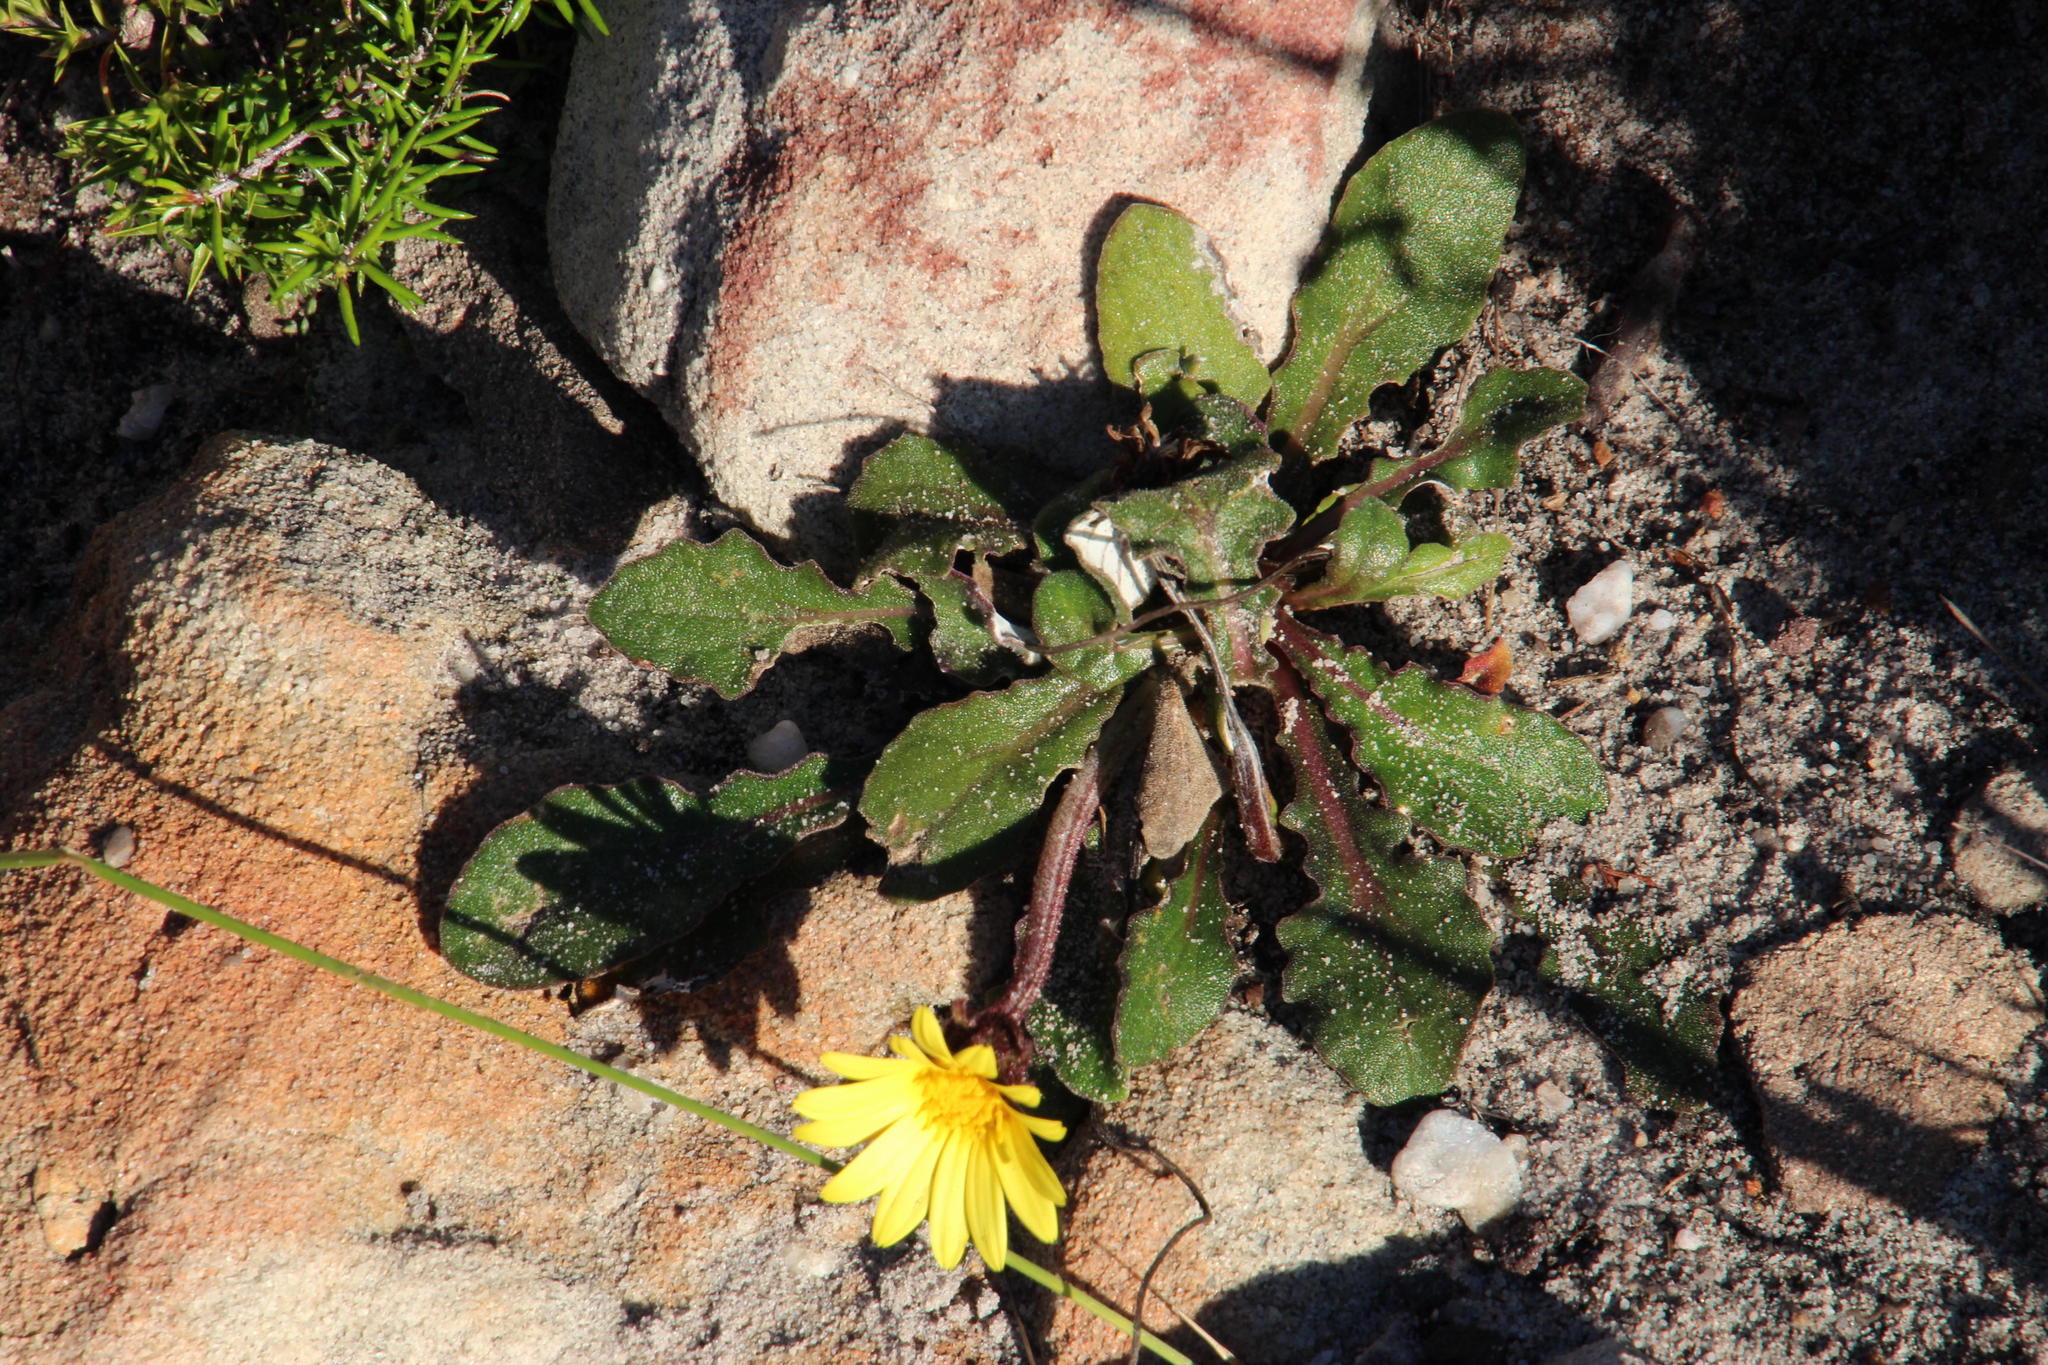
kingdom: Plantae
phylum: Tracheophyta
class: Magnoliopsida
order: Asterales
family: Asteraceae
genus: Haplocarpha
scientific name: Haplocarpha lanata
